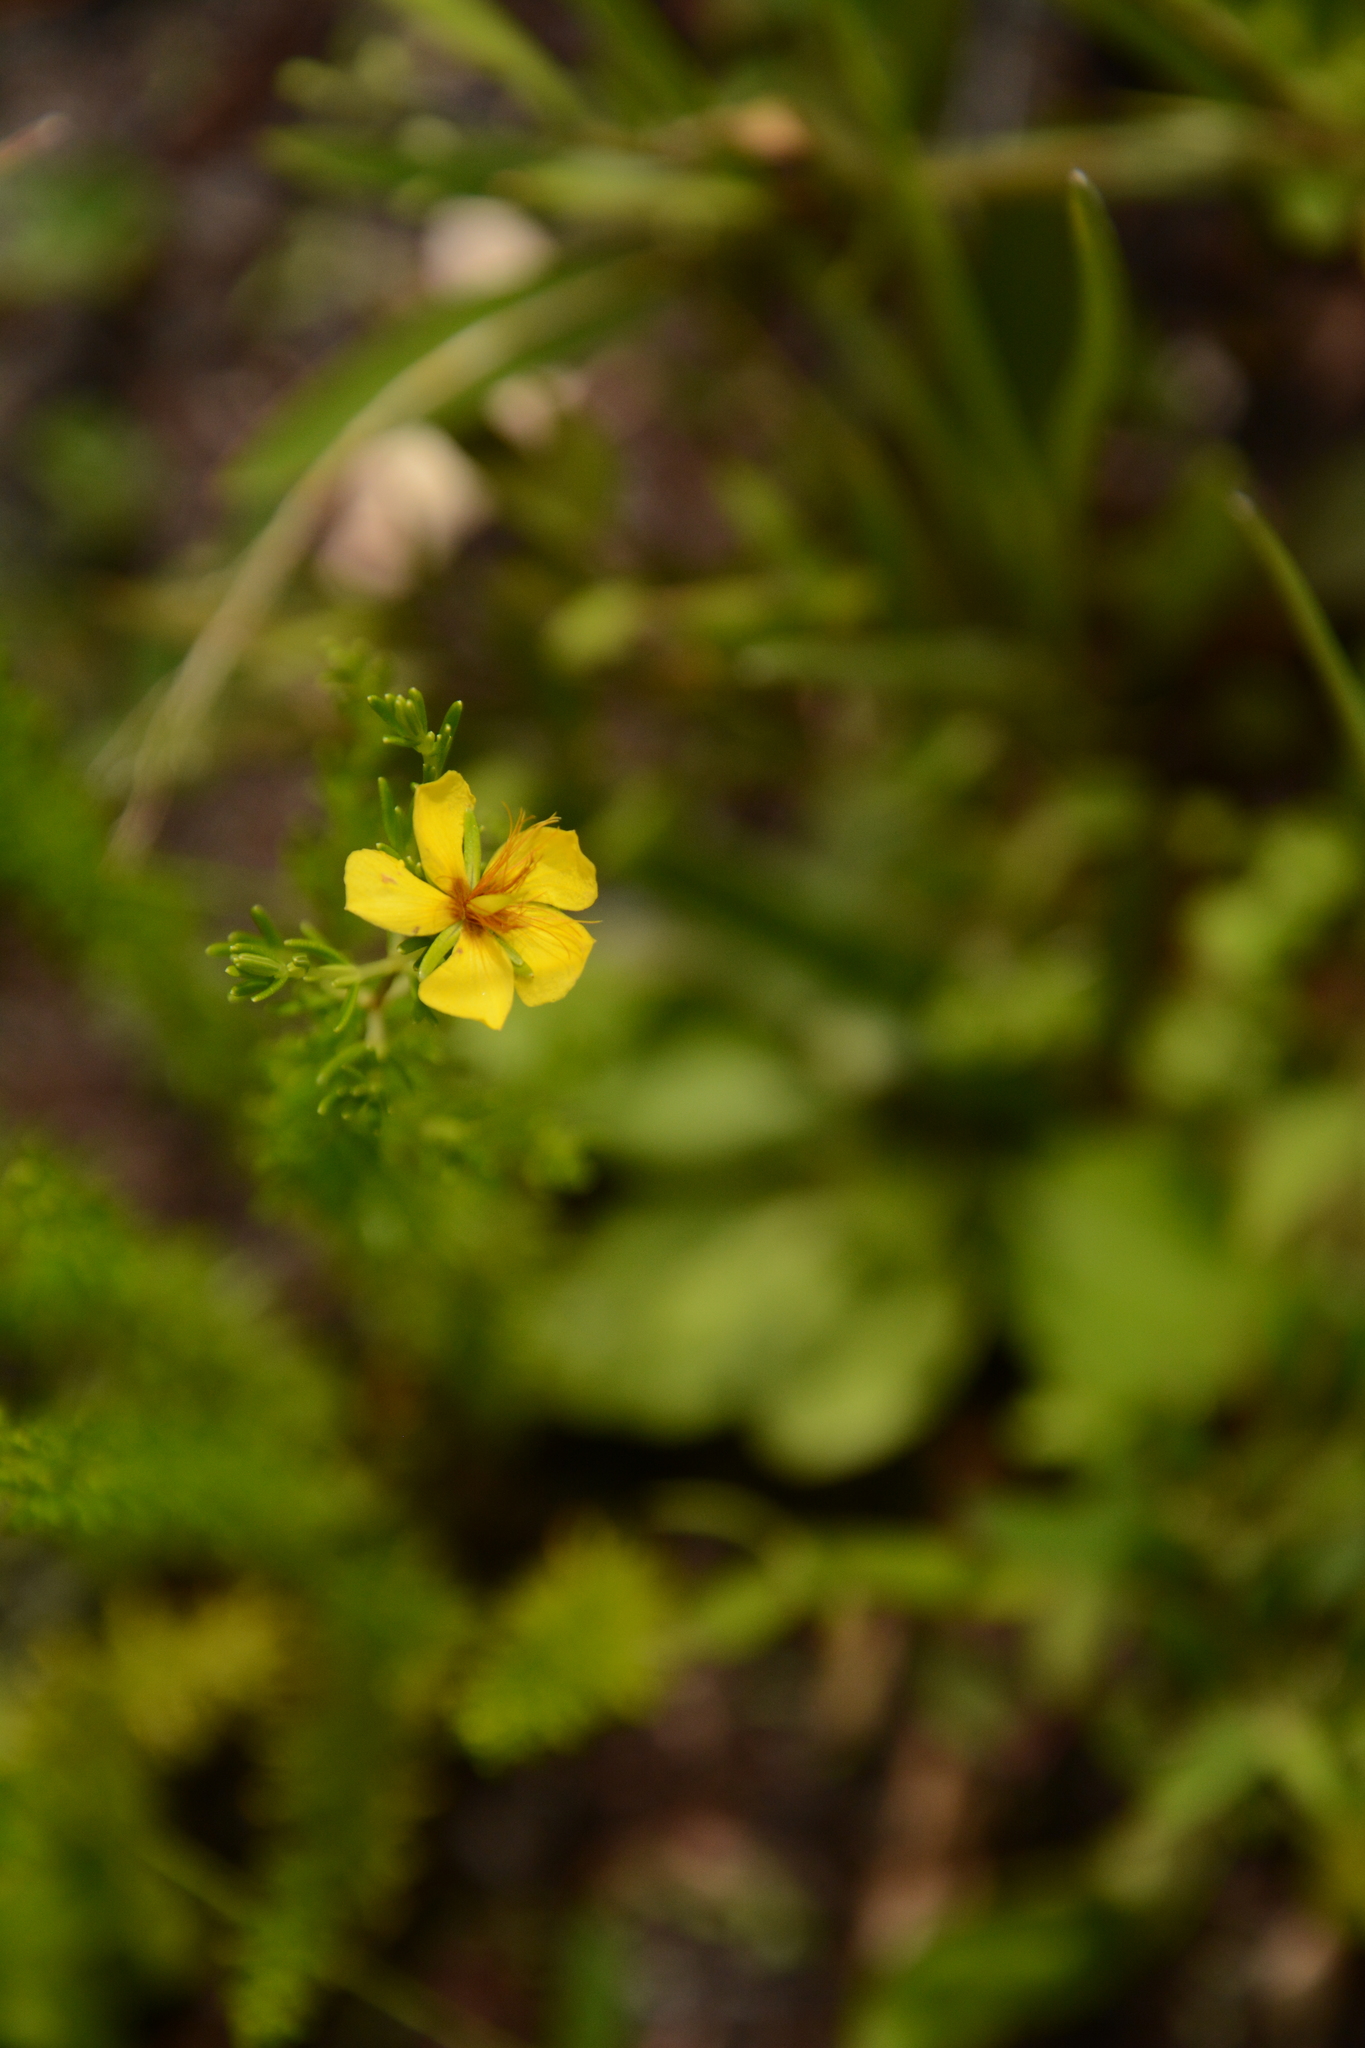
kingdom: Plantae
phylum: Tracheophyta
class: Magnoliopsida
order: Malpighiales
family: Hypericaceae
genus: Hypericum
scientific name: Hypericum tenuifolium
